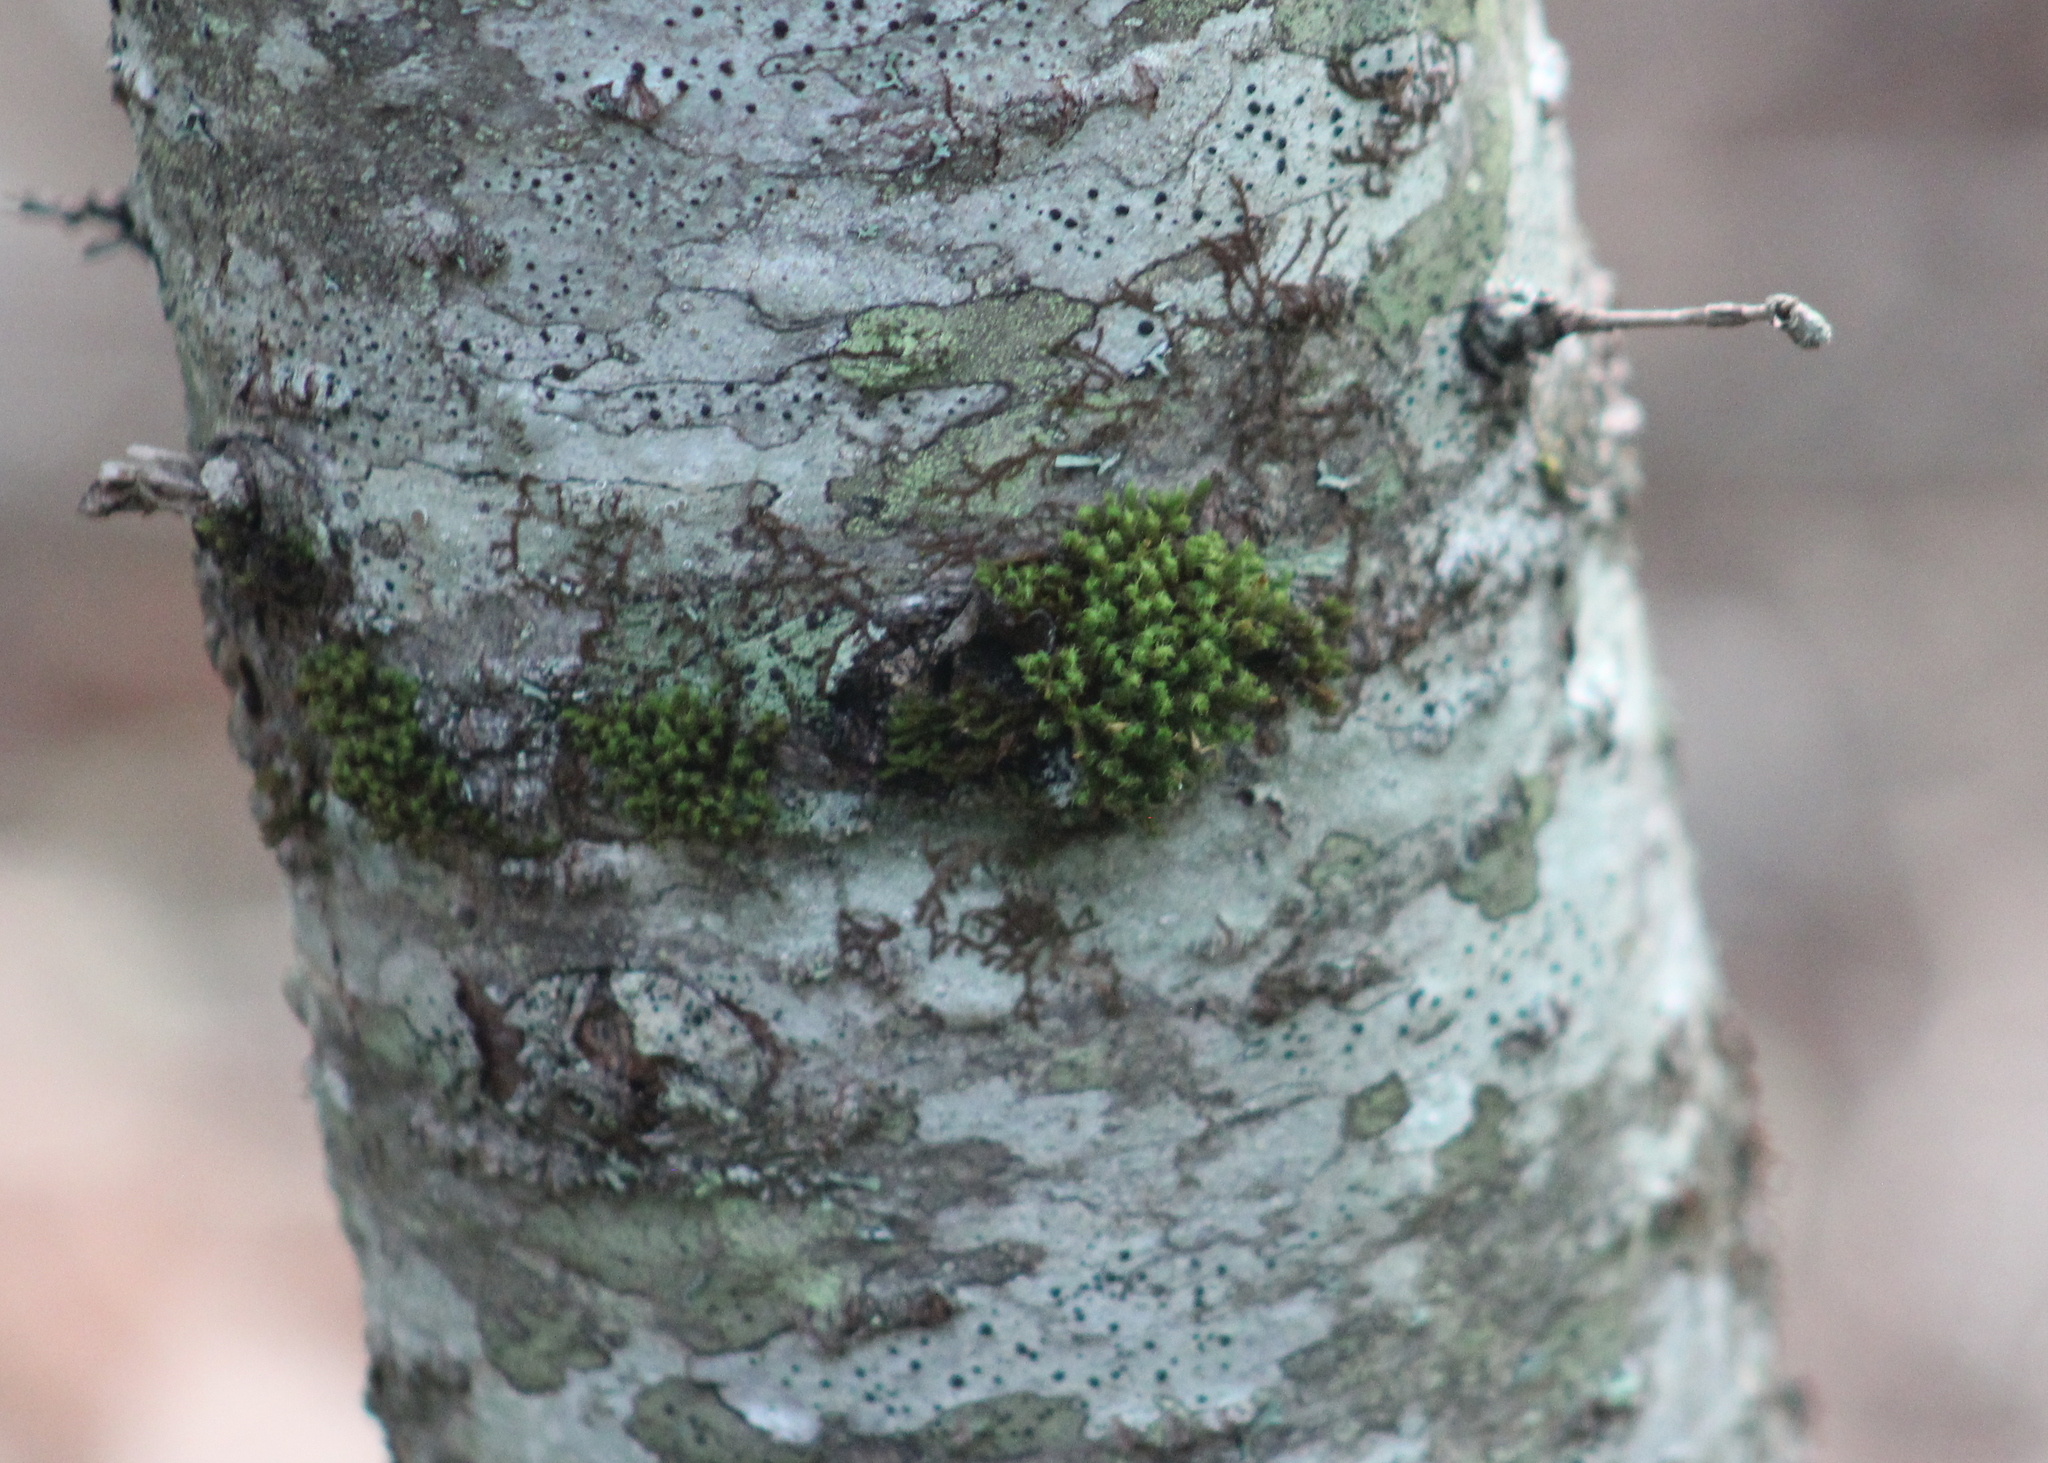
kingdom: Plantae
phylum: Bryophyta
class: Bryopsida
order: Orthotrichales
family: Orthotrichaceae
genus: Ulota
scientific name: Ulota
